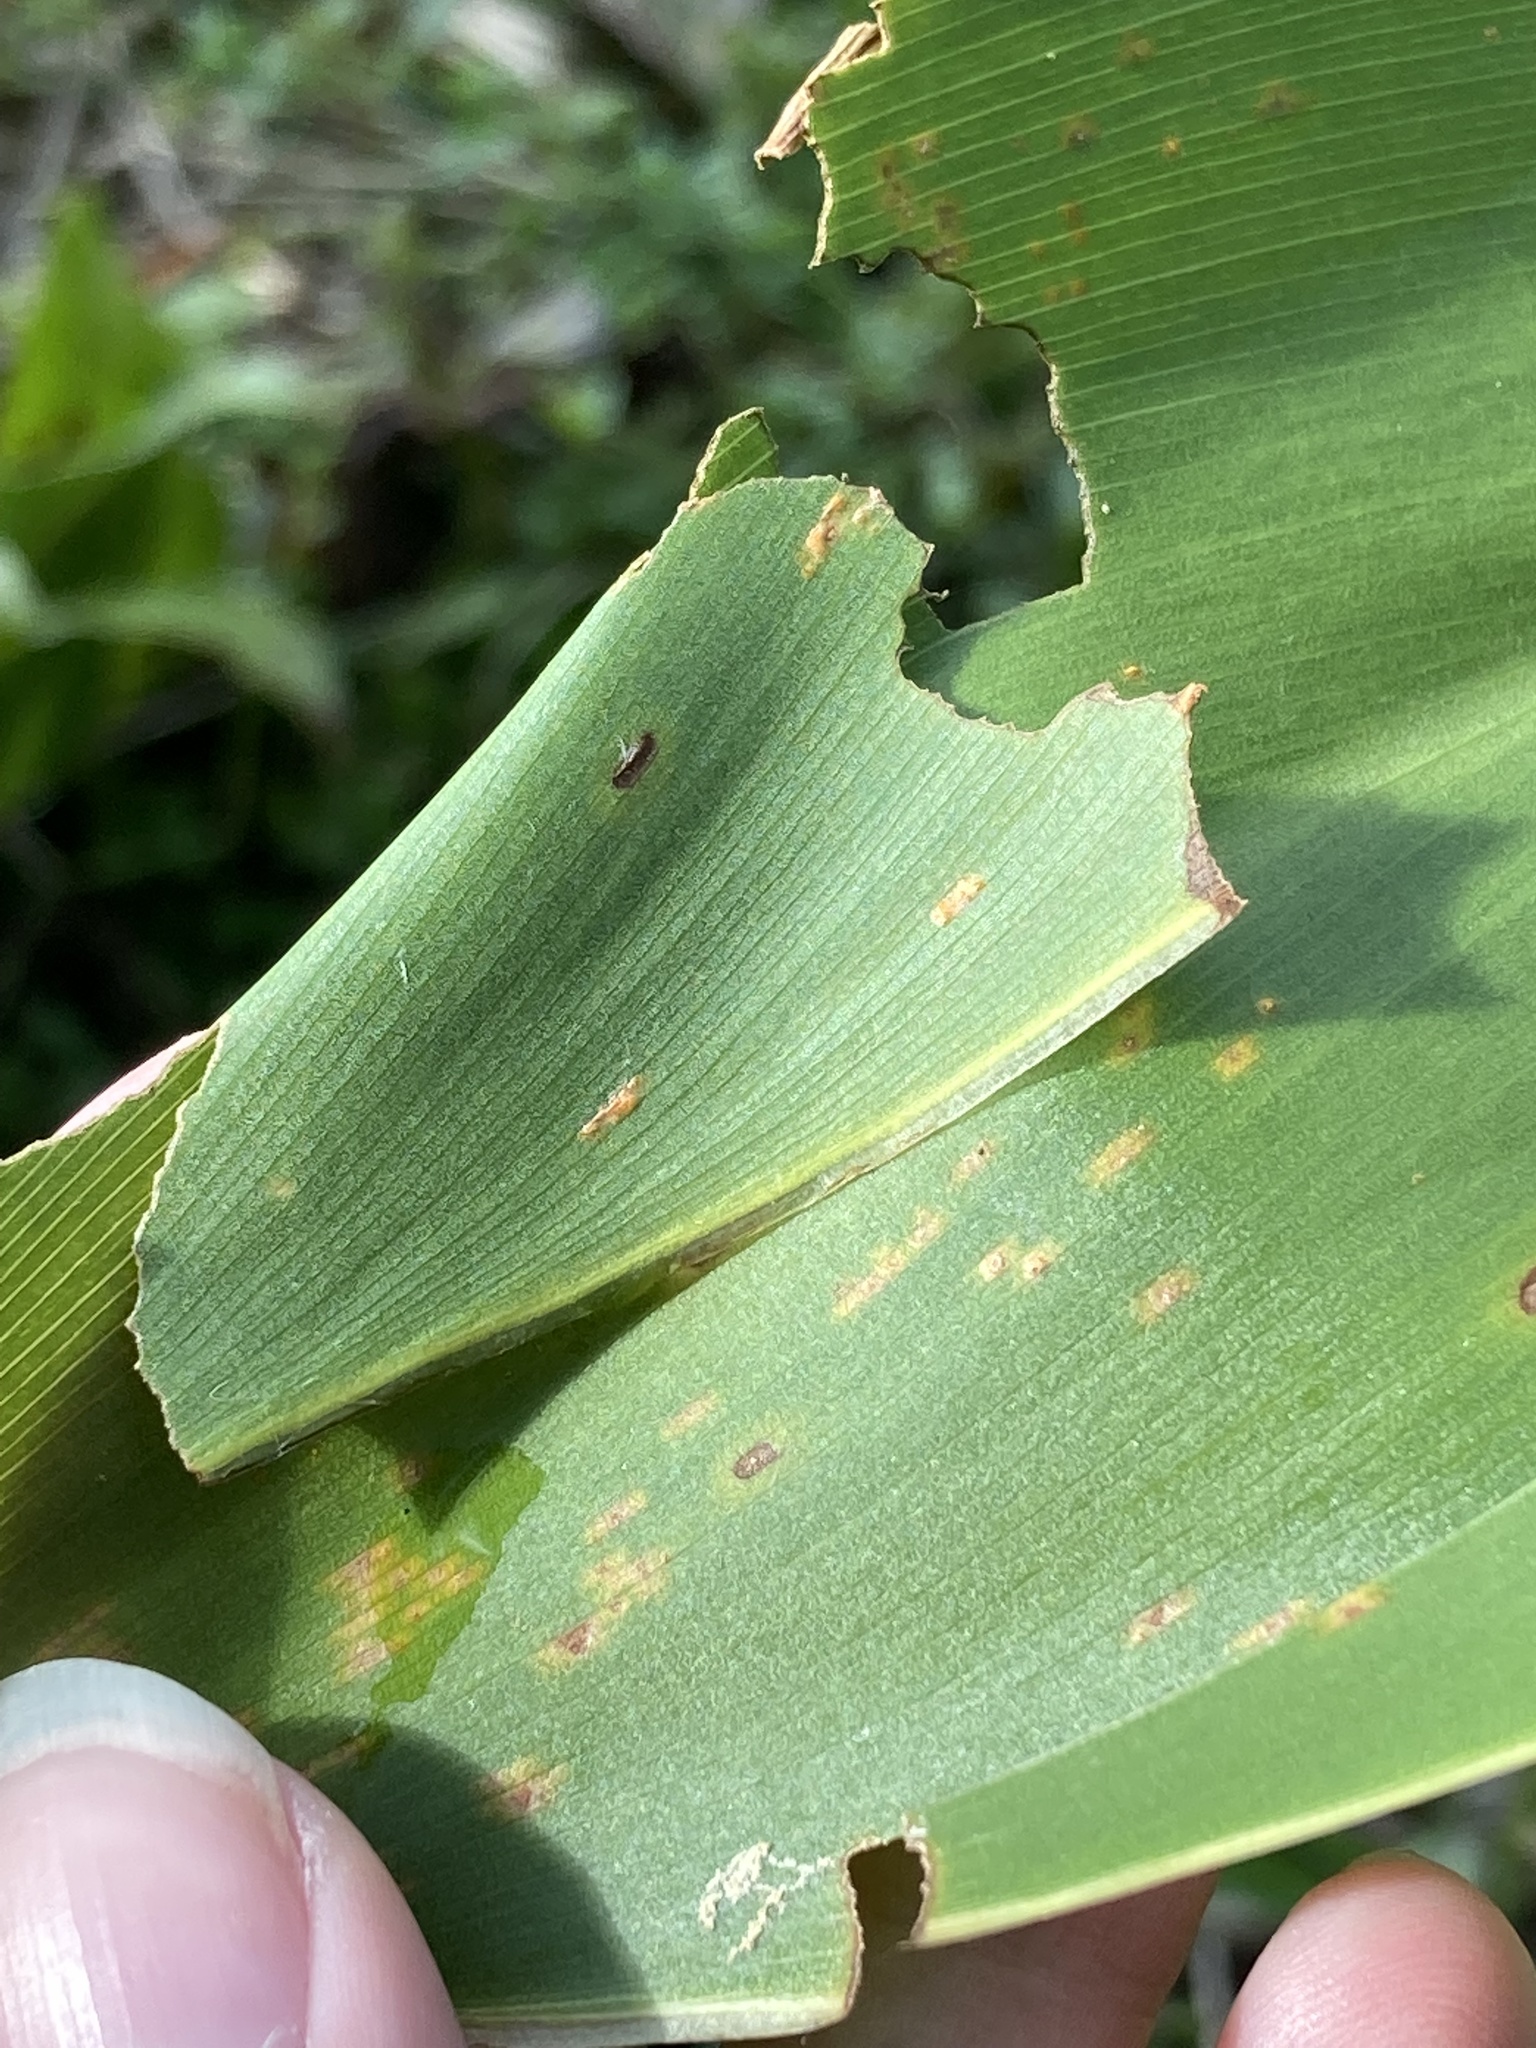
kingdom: Animalia
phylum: Arthropoda
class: Insecta
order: Lepidoptera
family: Hesperiidae
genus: Calpodes
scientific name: Calpodes ethlius
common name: Brazilian skipper
